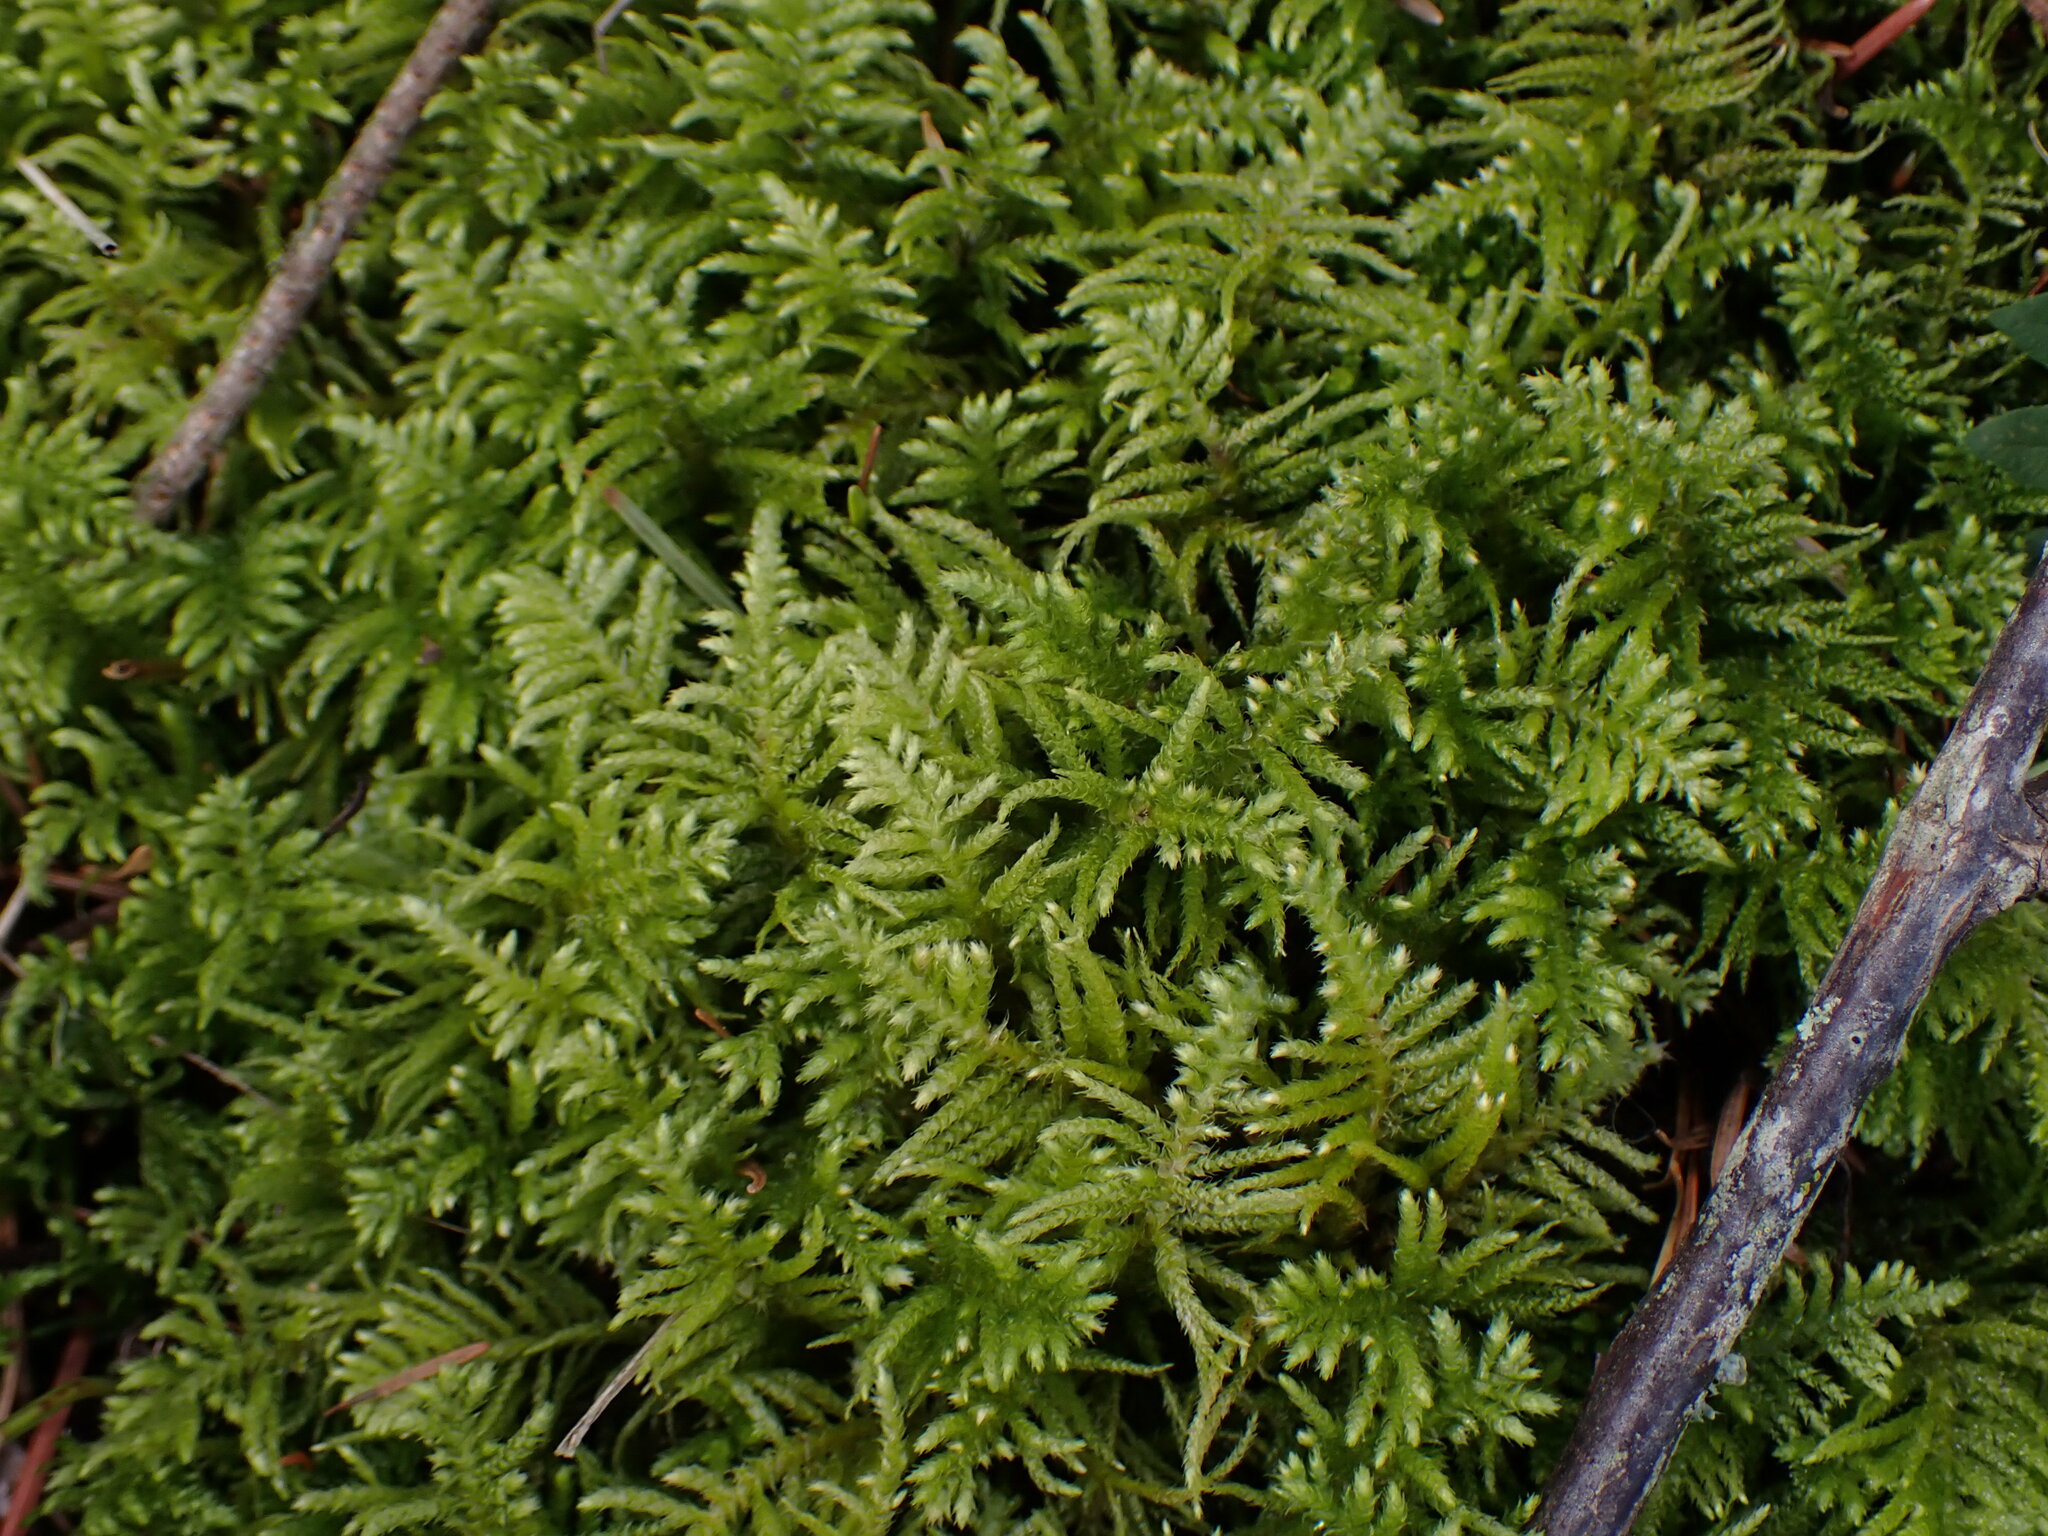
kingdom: Plantae
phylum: Bryophyta
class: Bryopsida
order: Hypnales
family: Brachytheciaceae
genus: Kindbergia
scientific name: Kindbergia oregana
